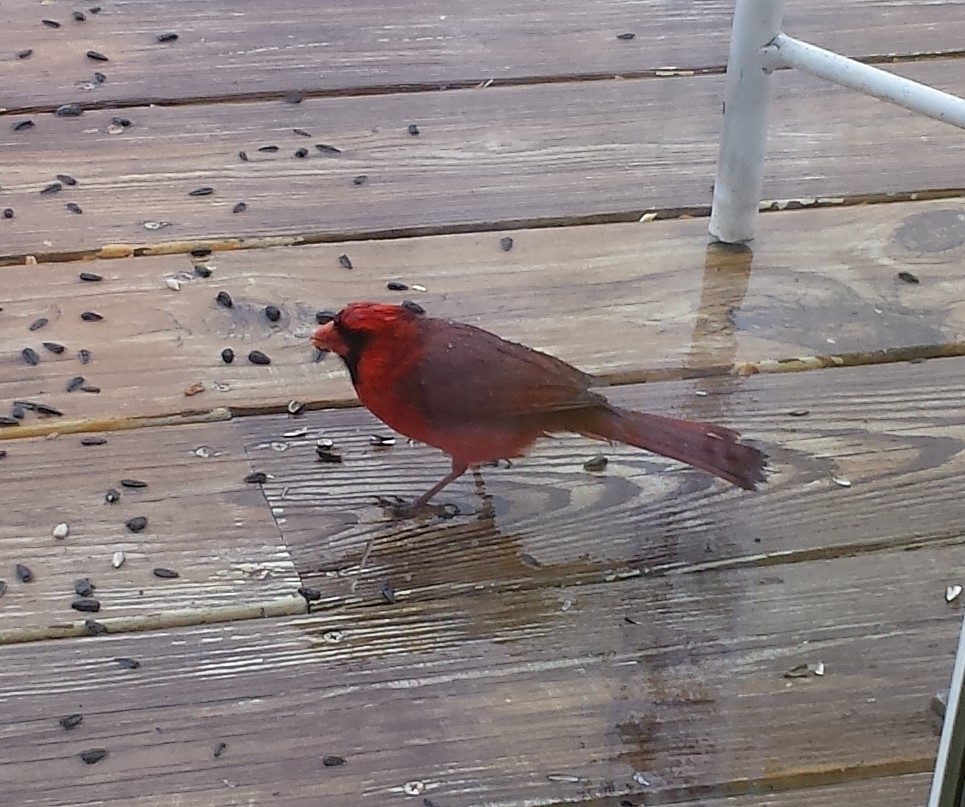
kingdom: Animalia
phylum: Chordata
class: Aves
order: Passeriformes
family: Cardinalidae
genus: Cardinalis
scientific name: Cardinalis cardinalis
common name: Northern cardinal
